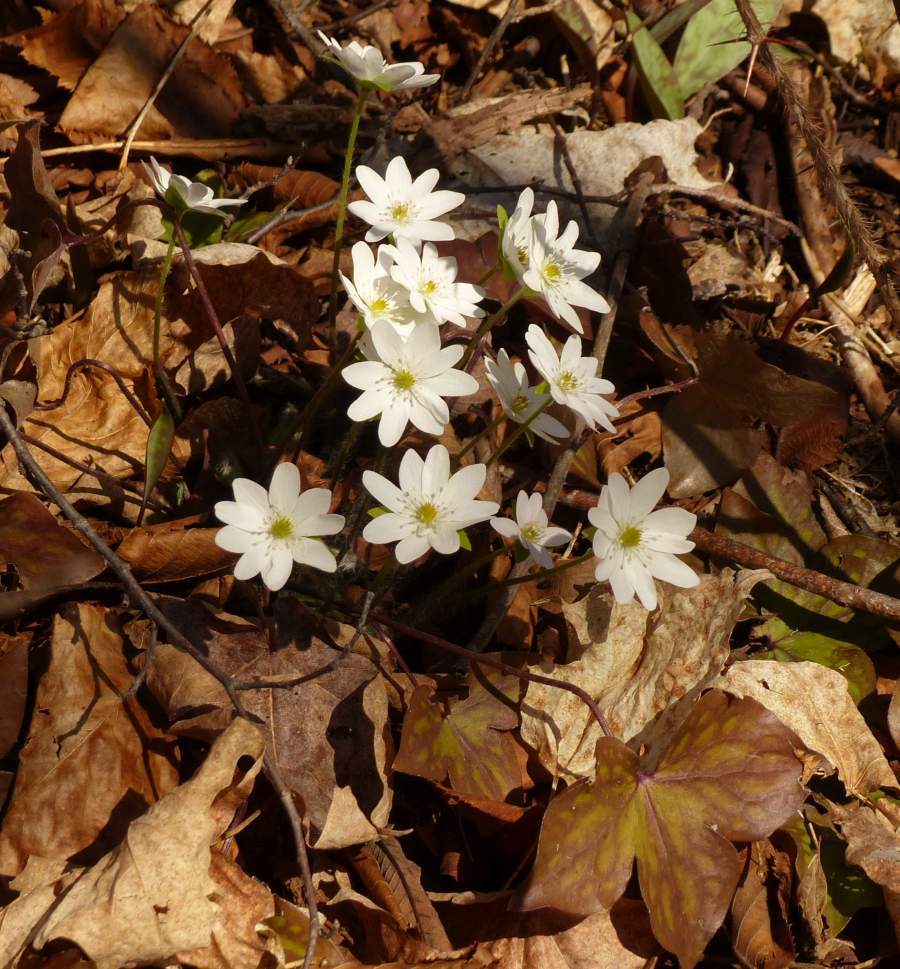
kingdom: Plantae
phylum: Tracheophyta
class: Magnoliopsida
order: Ranunculales
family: Ranunculaceae
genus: Hepatica
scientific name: Hepatica acutiloba
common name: Sharp-lobed hepatica
